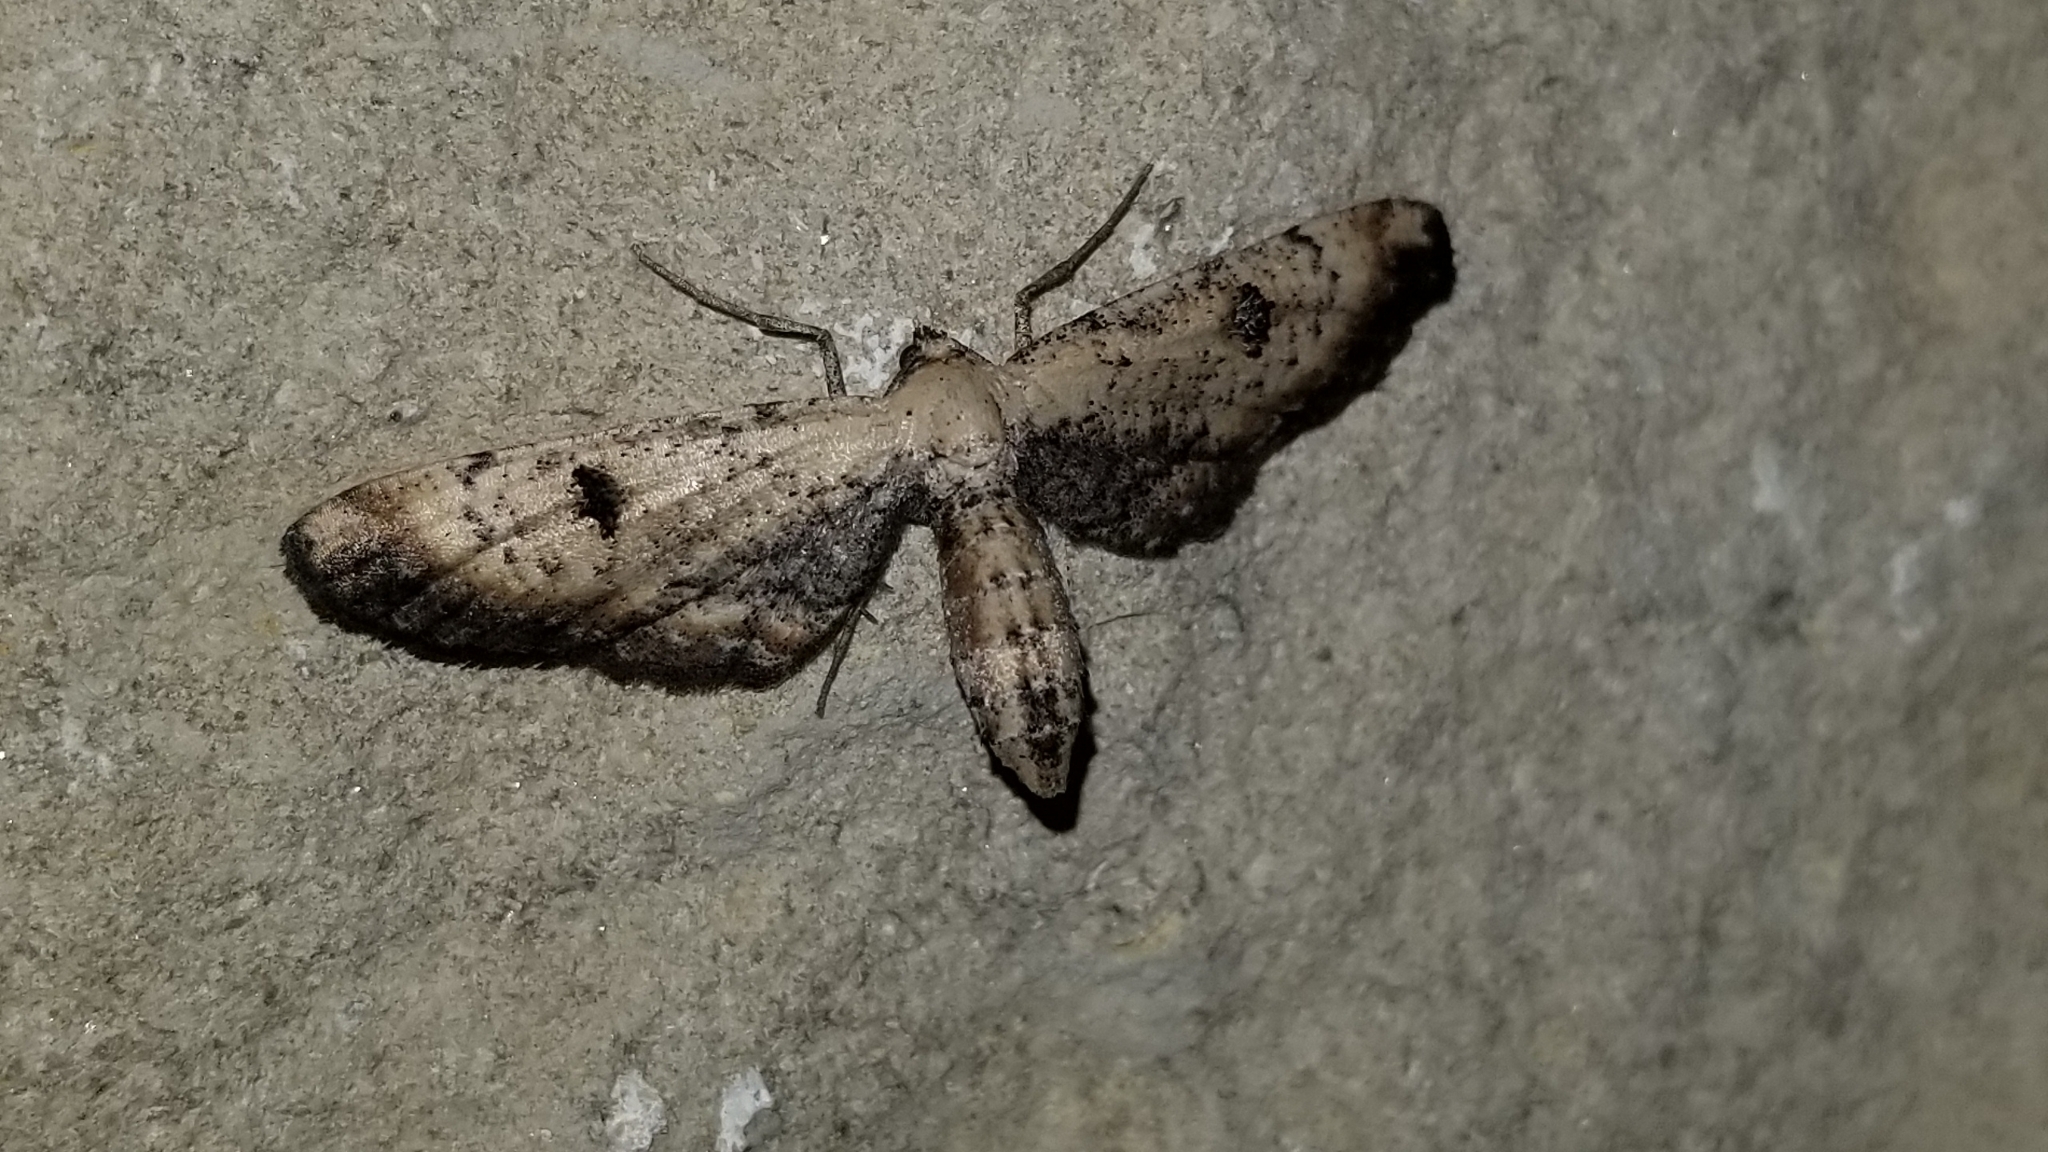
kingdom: Animalia
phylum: Arthropoda
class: Insecta
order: Lepidoptera
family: Geometridae
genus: Tornos
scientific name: Tornos scolopacinaria
